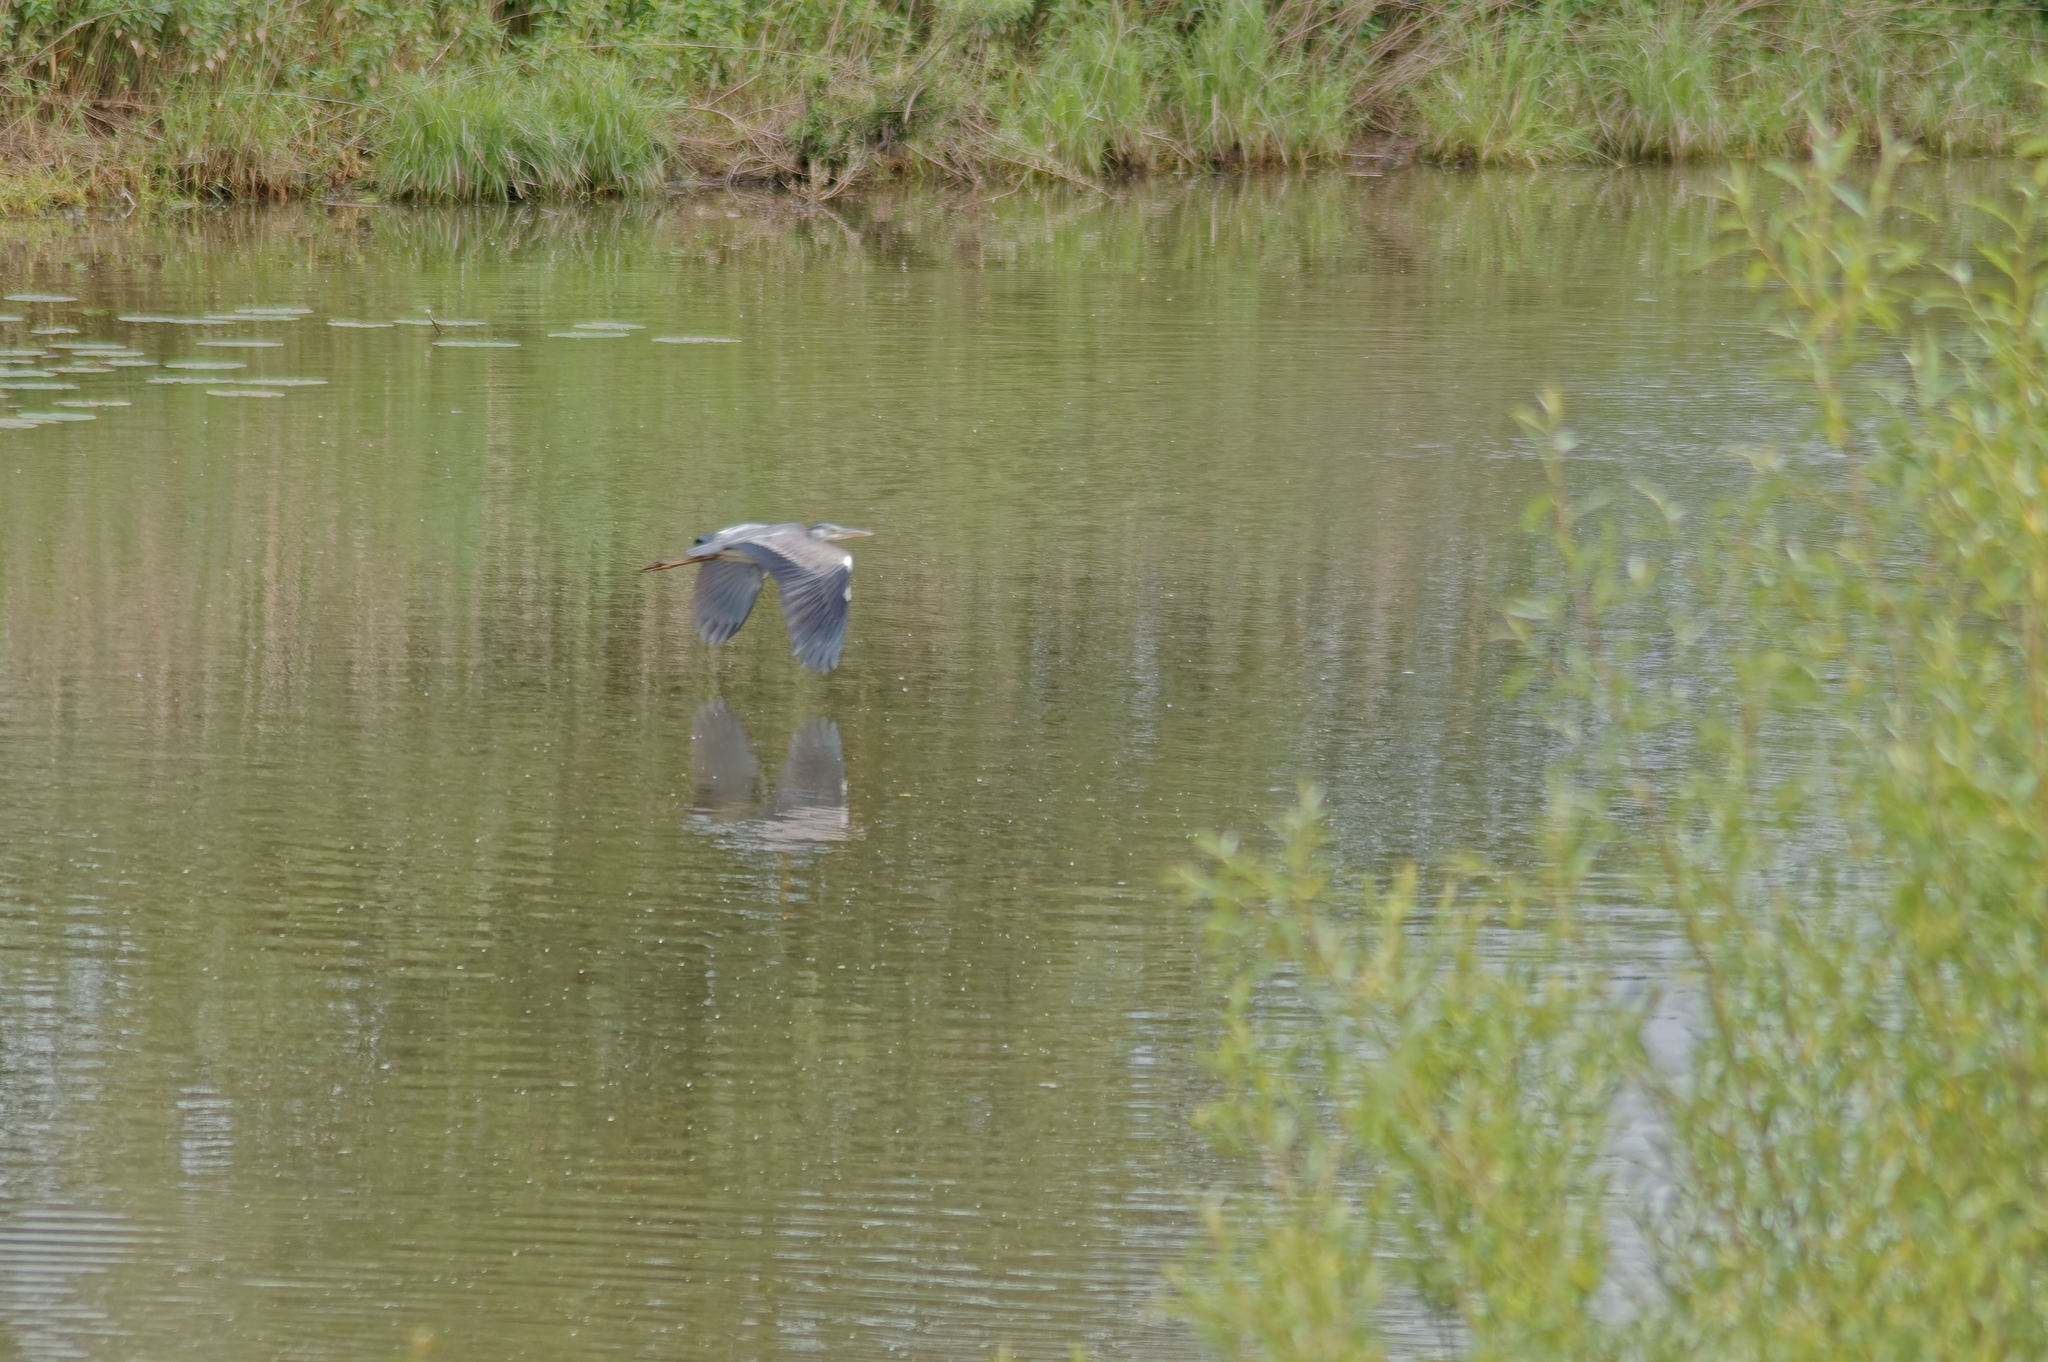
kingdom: Animalia
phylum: Chordata
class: Aves
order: Pelecaniformes
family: Ardeidae
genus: Ardea
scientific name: Ardea cinerea
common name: Grey heron
